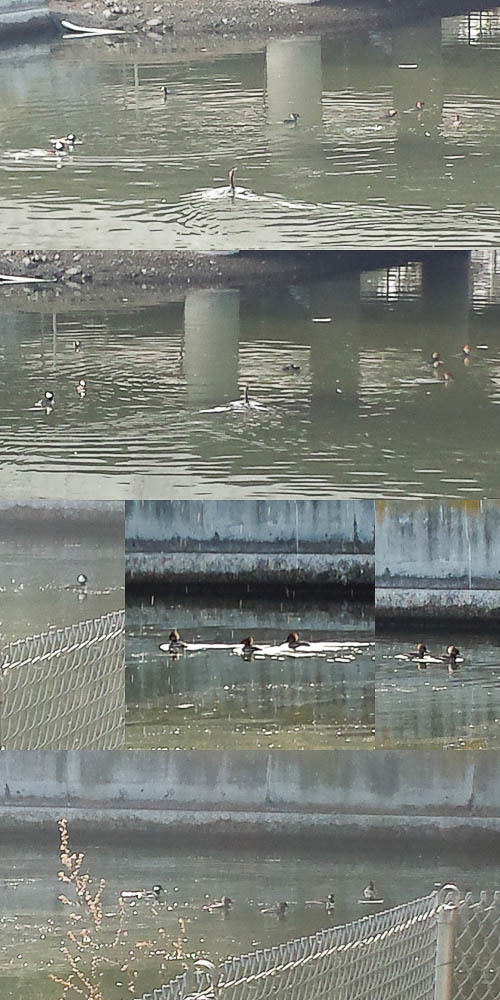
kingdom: Animalia
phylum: Chordata
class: Aves
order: Anseriformes
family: Anatidae
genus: Lophodytes
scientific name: Lophodytes cucullatus
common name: Hooded merganser
